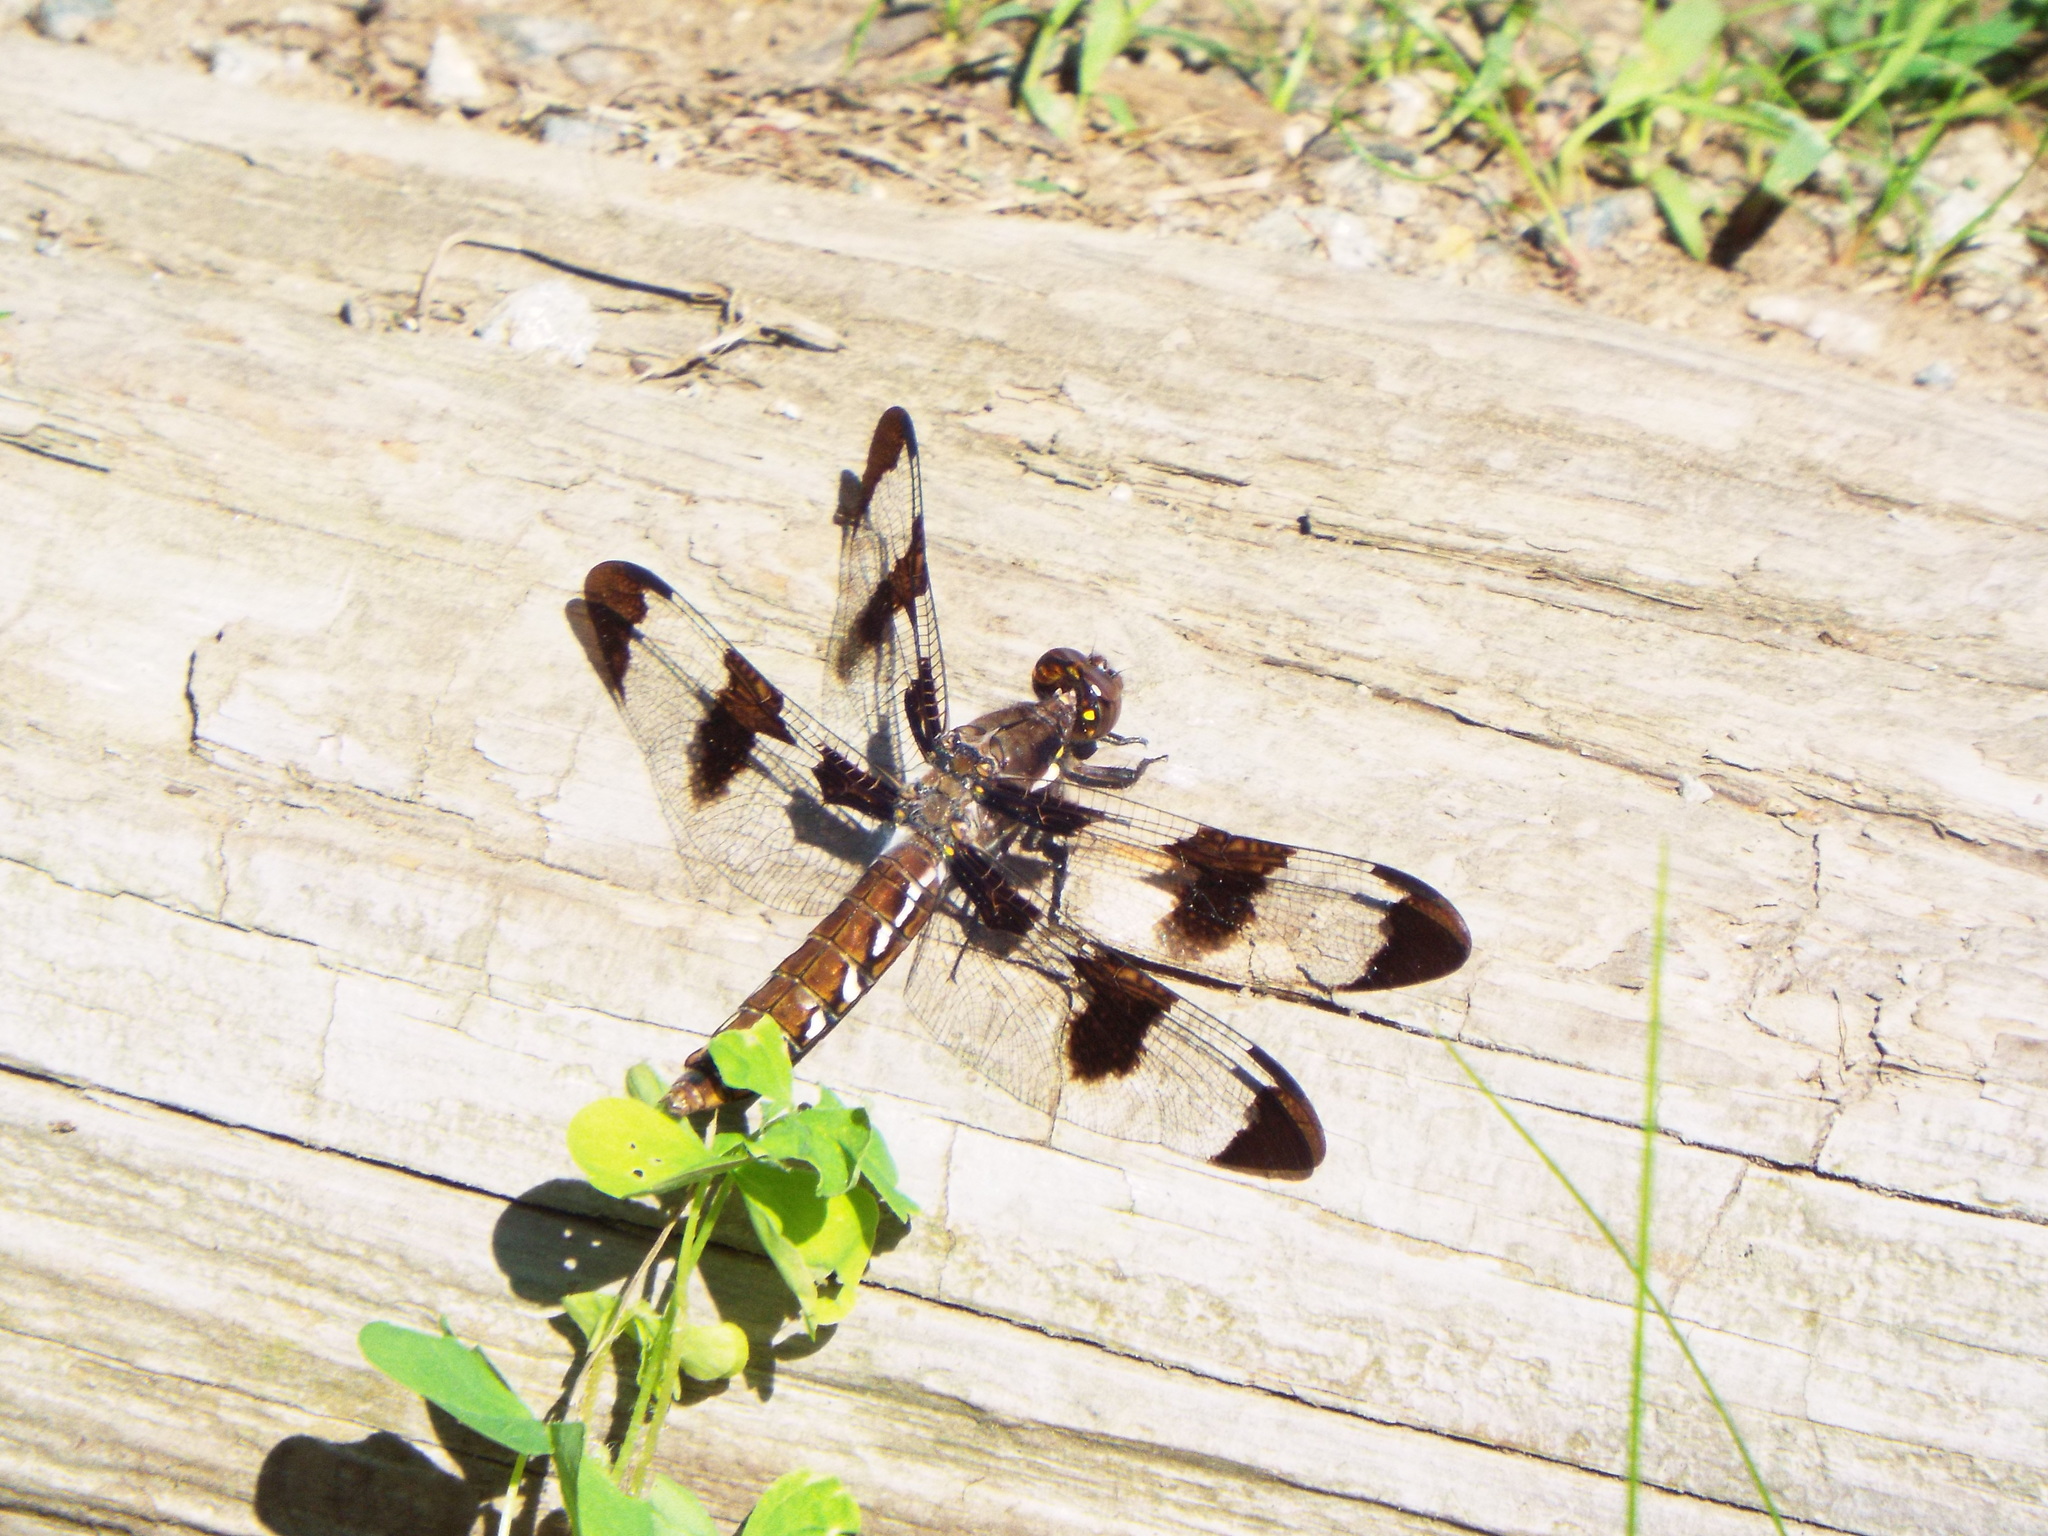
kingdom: Animalia
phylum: Arthropoda
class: Insecta
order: Odonata
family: Libellulidae
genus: Plathemis
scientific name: Plathemis lydia
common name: Common whitetail
